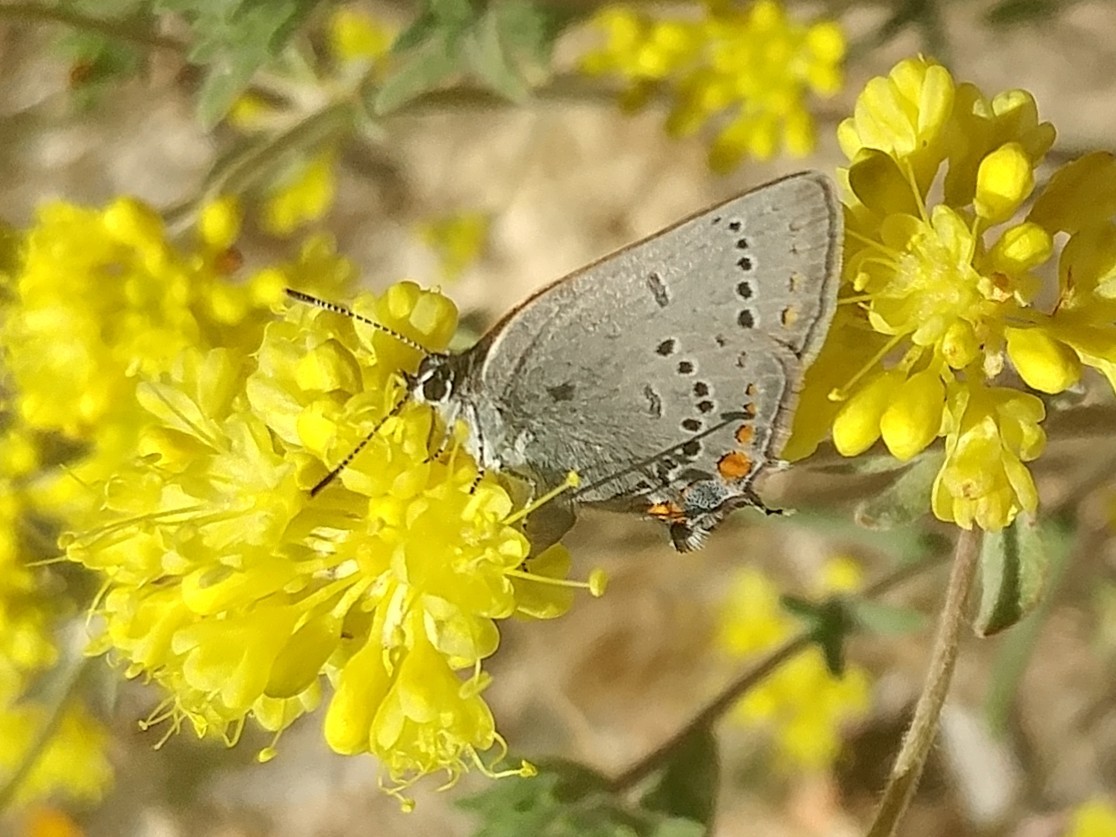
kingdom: Animalia
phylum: Arthropoda
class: Insecta
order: Lepidoptera
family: Lycaenidae
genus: Strymon
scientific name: Strymon acadica
